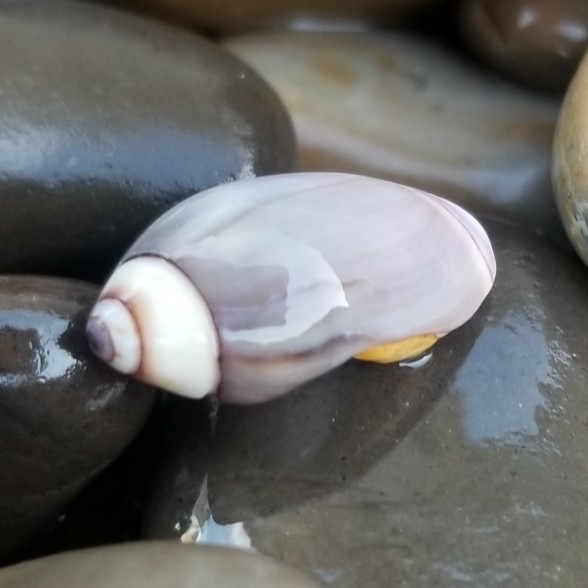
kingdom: Animalia
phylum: Mollusca
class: Gastropoda
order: Neogastropoda
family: Olividae
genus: Callianax
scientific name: Callianax biplicata
